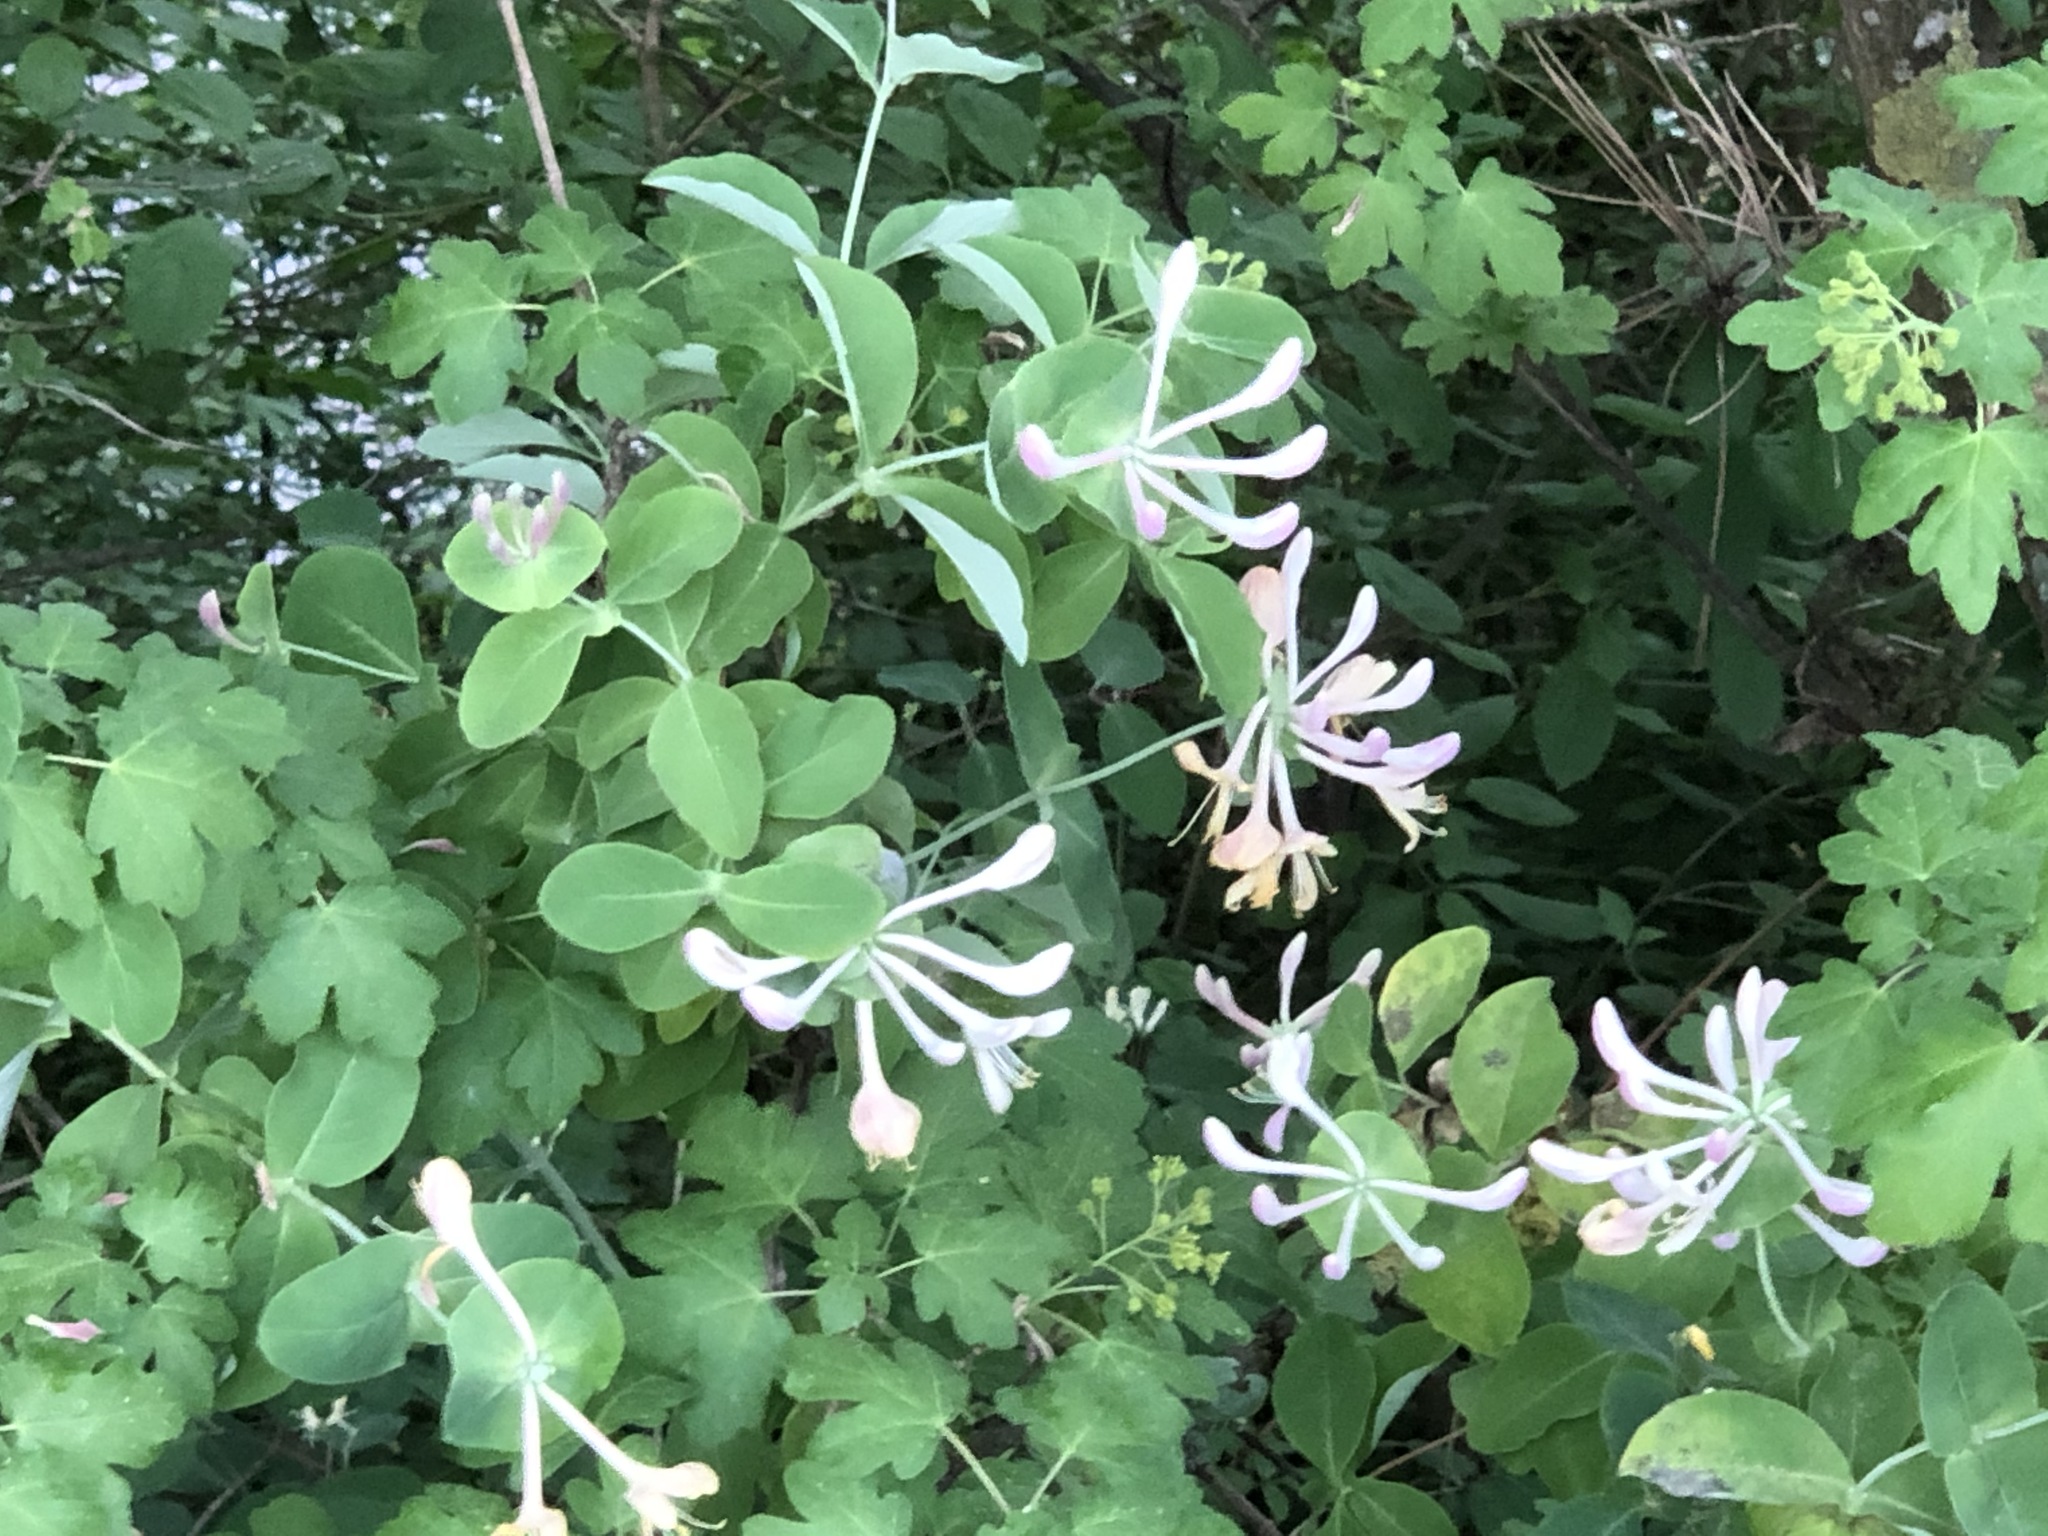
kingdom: Plantae
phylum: Tracheophyta
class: Magnoliopsida
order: Dipsacales
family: Caprifoliaceae
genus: Lonicera
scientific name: Lonicera caprifolium
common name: Perfoliate honeysuckle
